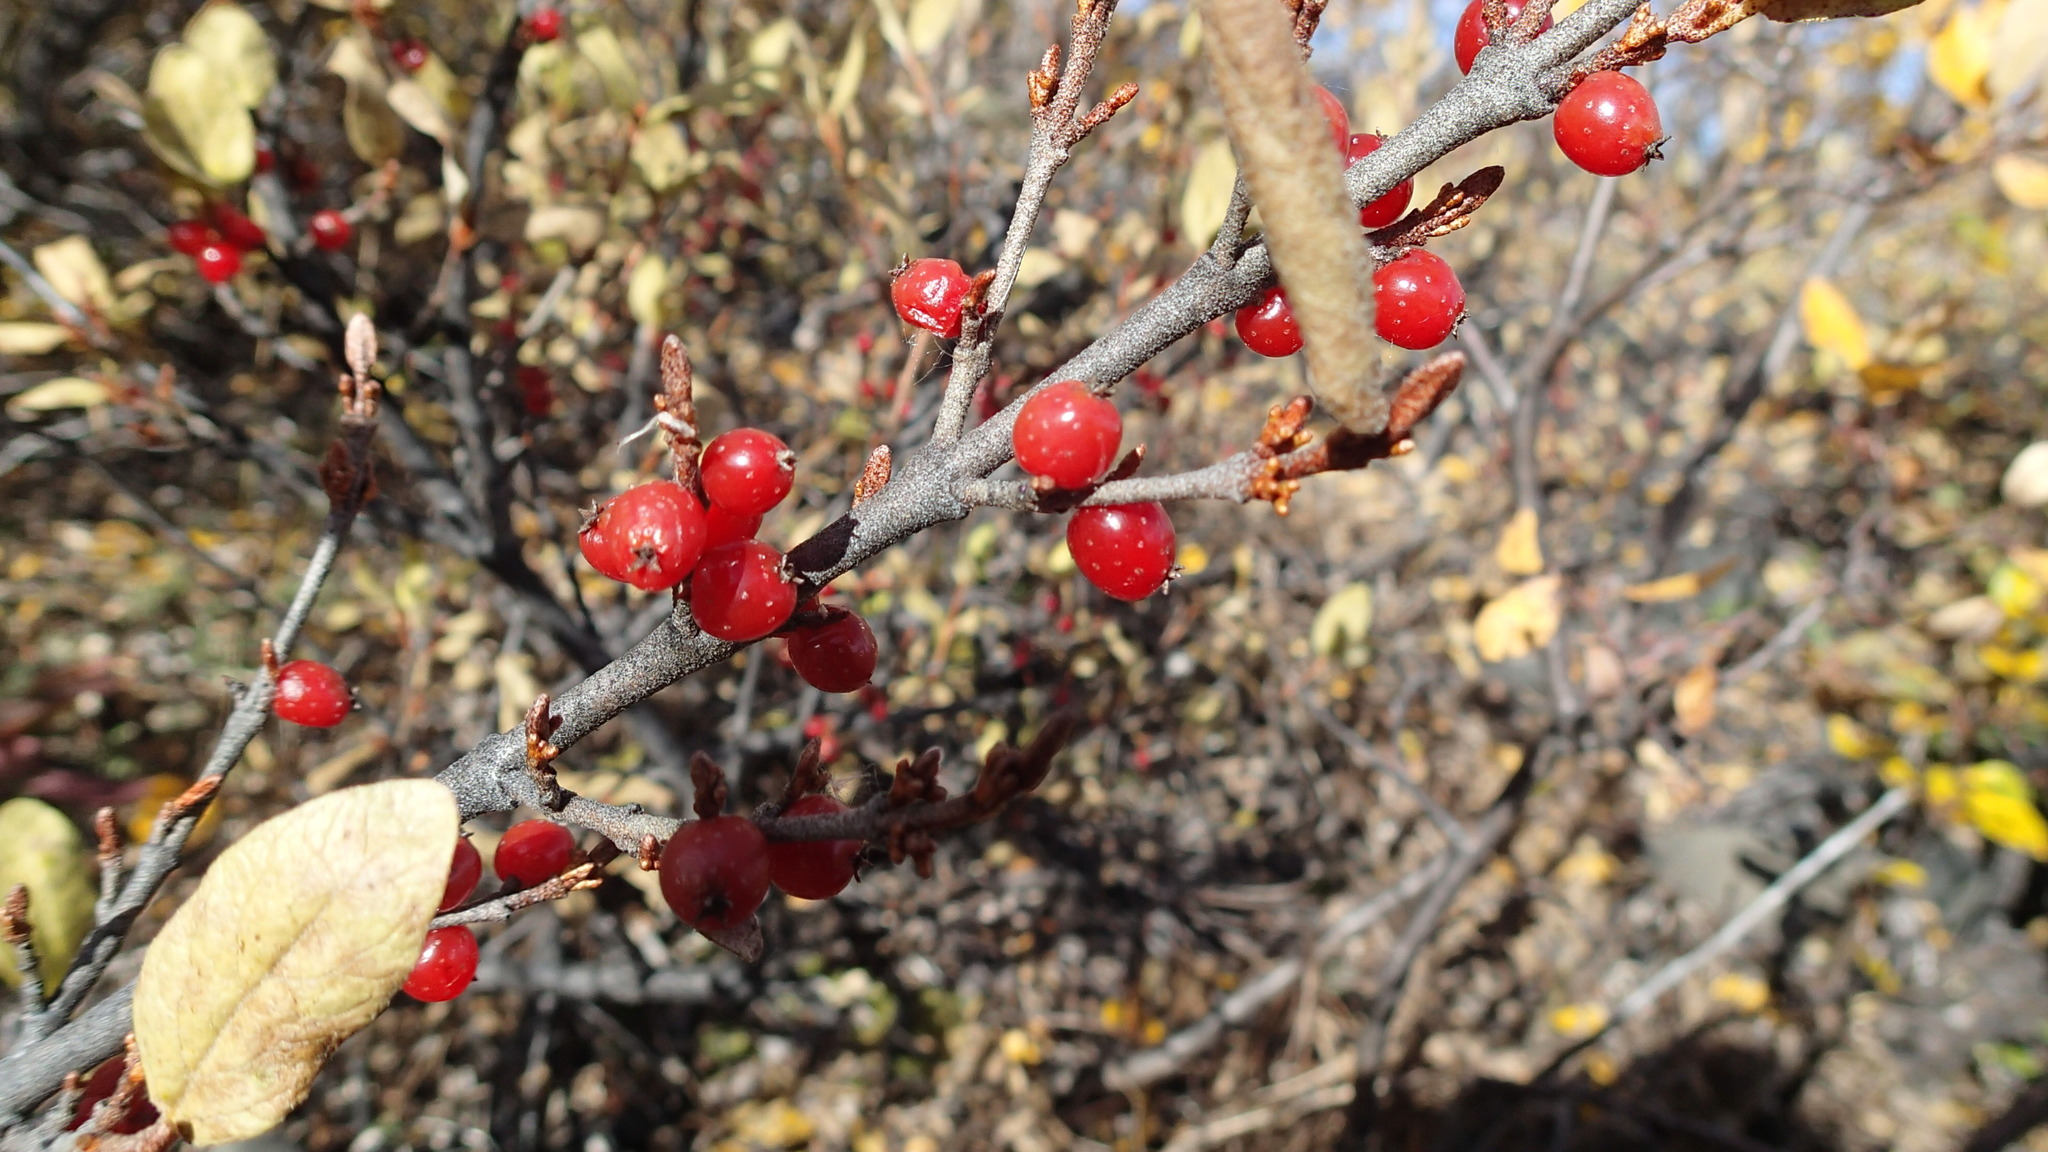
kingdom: Plantae
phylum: Tracheophyta
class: Magnoliopsida
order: Rosales
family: Elaeagnaceae
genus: Shepherdia
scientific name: Shepherdia canadensis
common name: Soapberry
